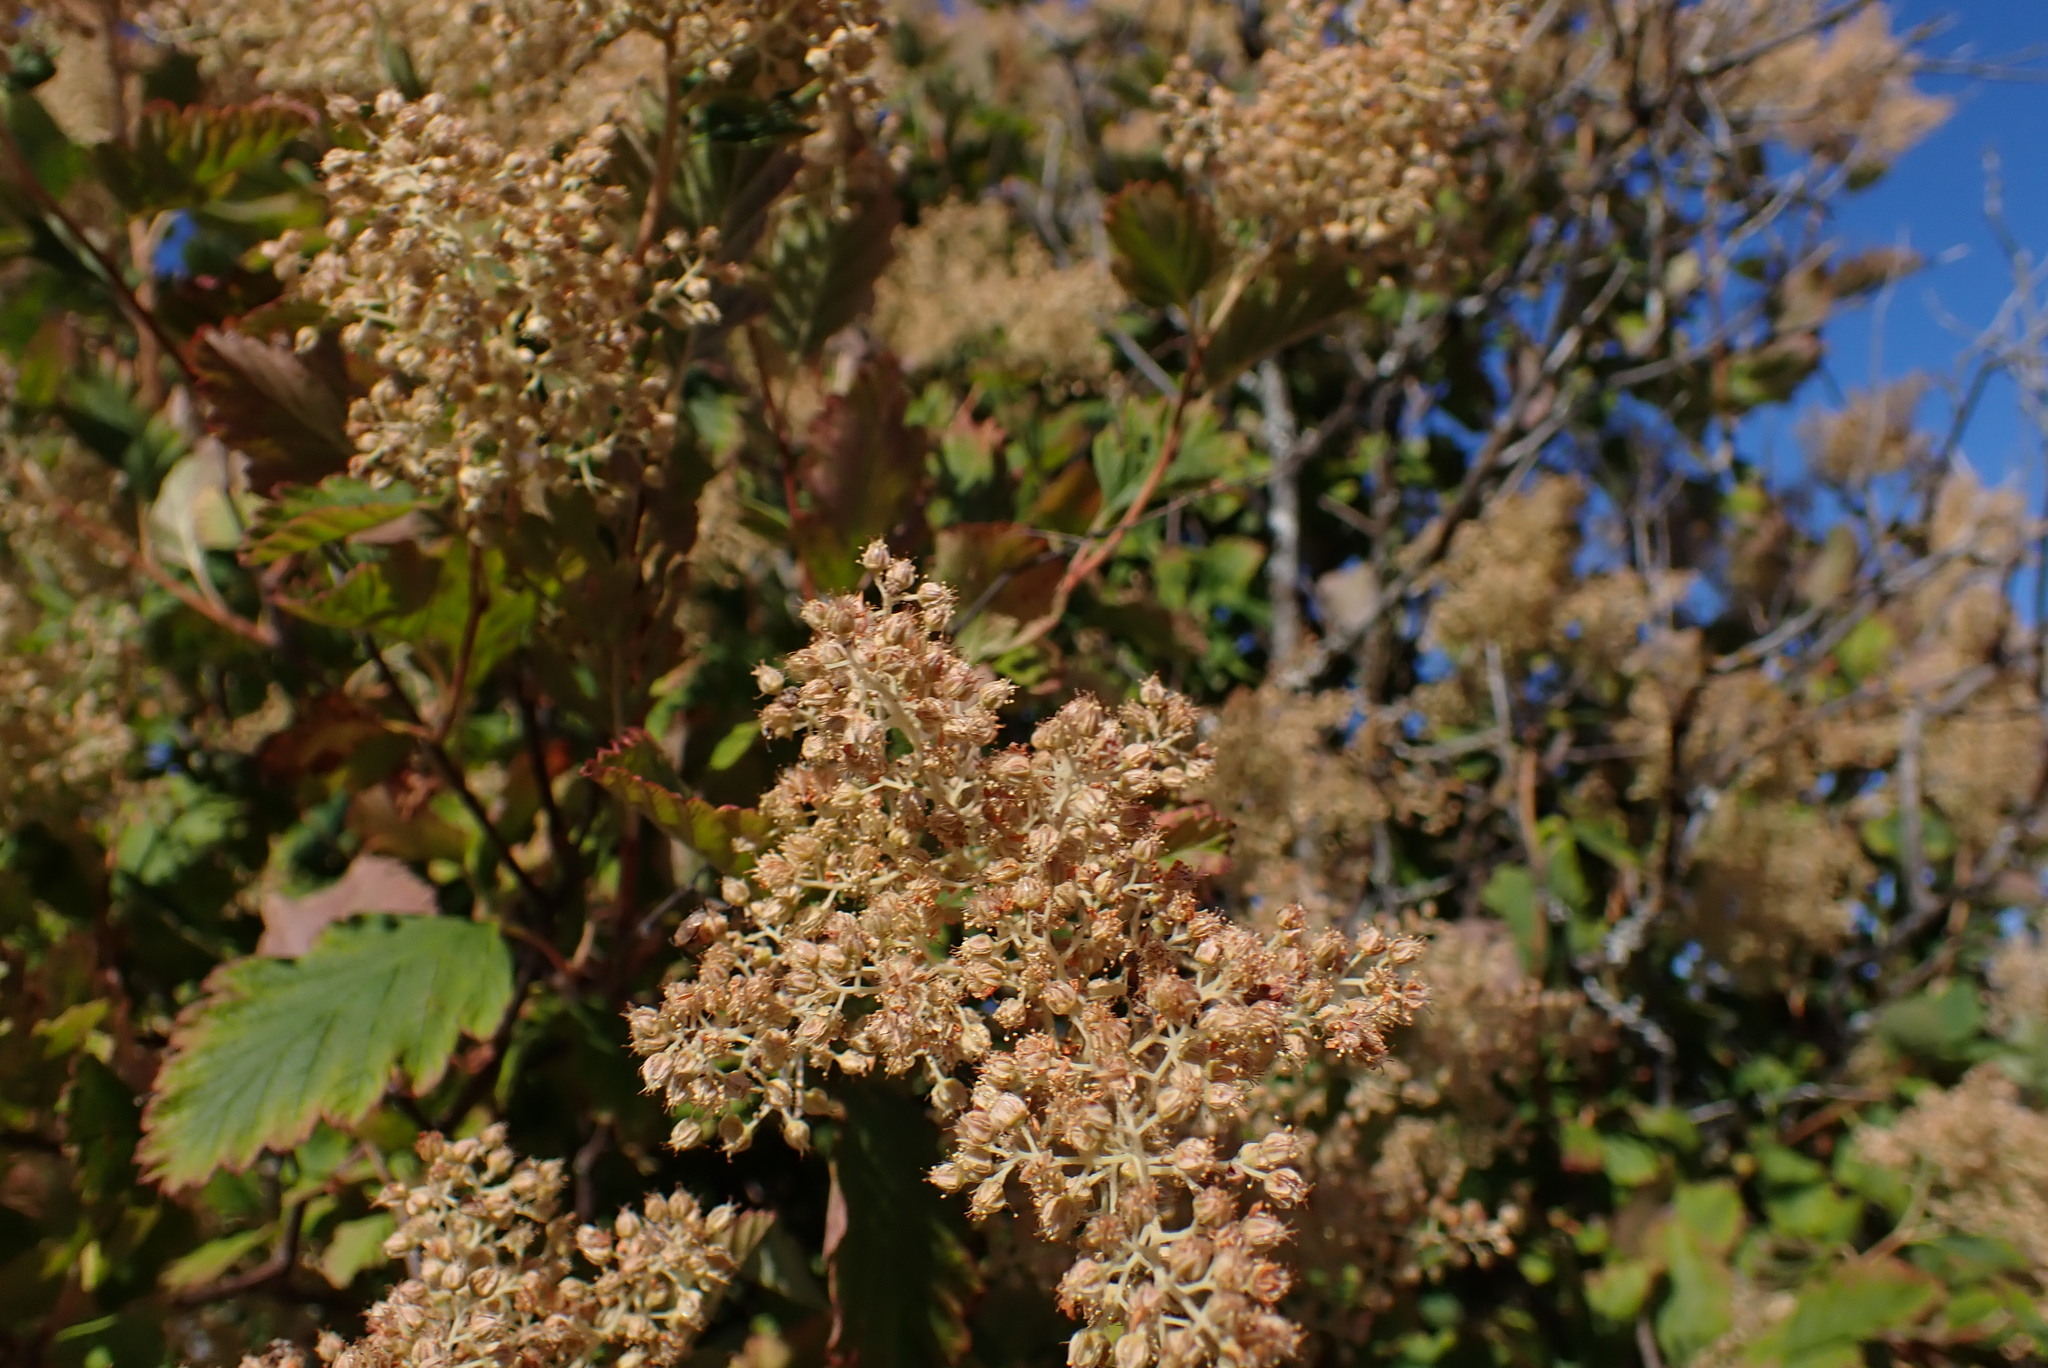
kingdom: Plantae
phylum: Tracheophyta
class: Magnoliopsida
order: Rosales
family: Rosaceae
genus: Holodiscus
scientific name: Holodiscus discolor
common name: Oceanspray
